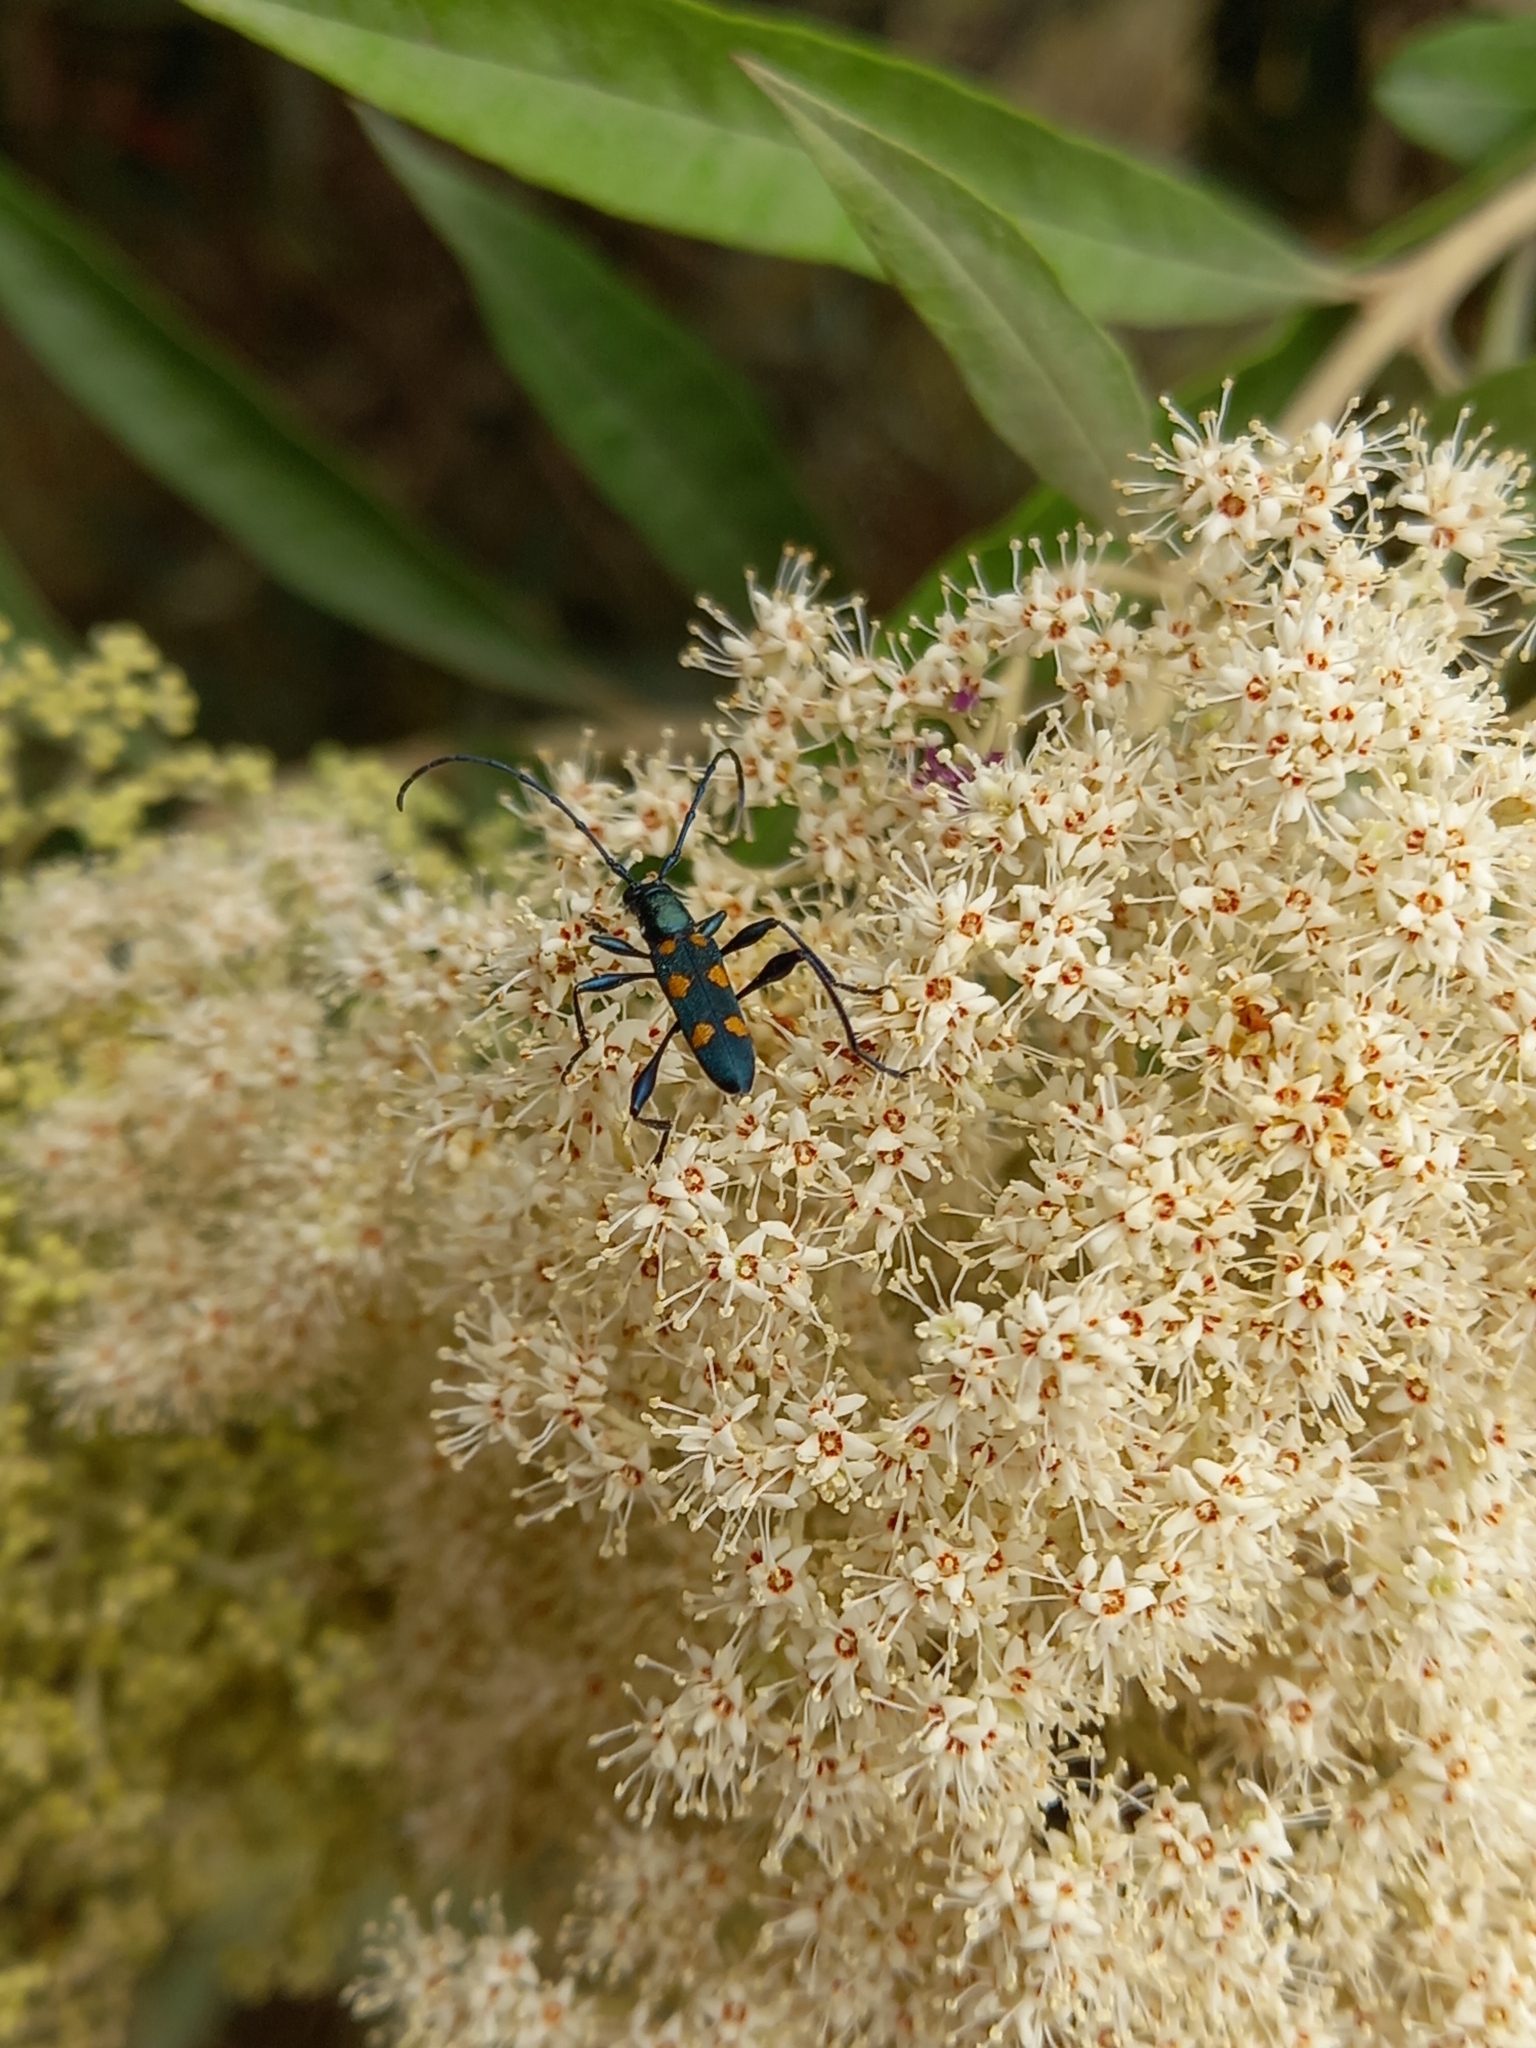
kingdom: Animalia
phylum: Arthropoda
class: Insecta
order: Coleoptera
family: Cerambycidae
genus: Closteromerus
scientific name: Closteromerus sexpunctatus
